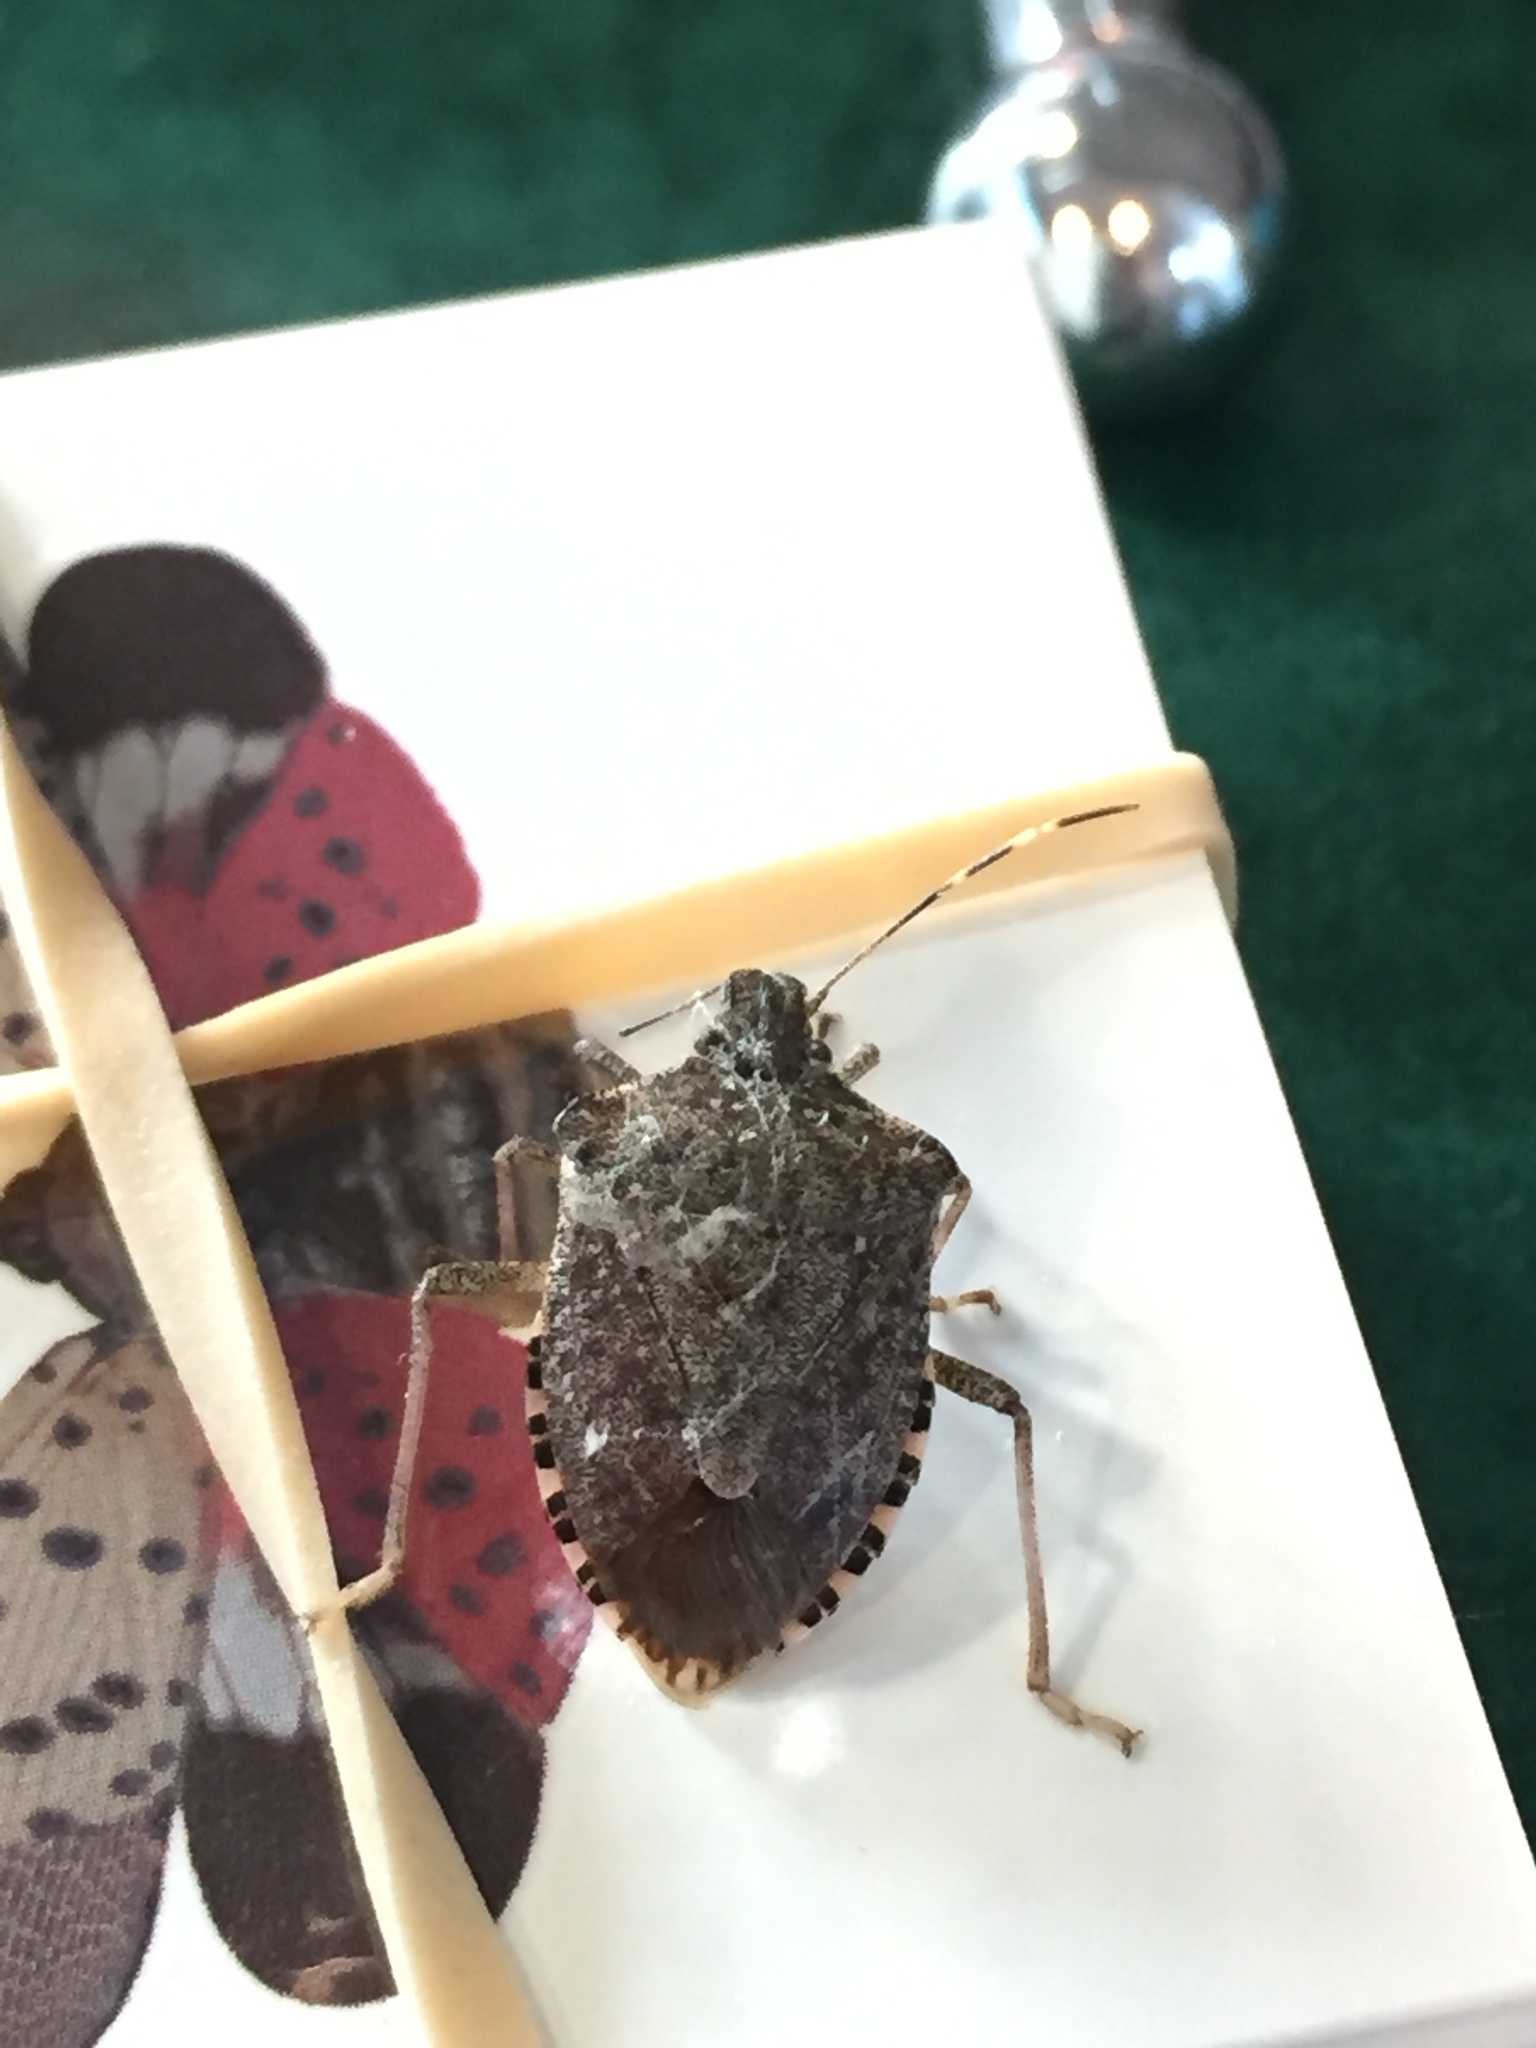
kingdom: Animalia
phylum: Arthropoda
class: Insecta
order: Hemiptera
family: Pentatomidae
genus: Halyomorpha
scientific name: Halyomorpha halys
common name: Brown marmorated stink bug
